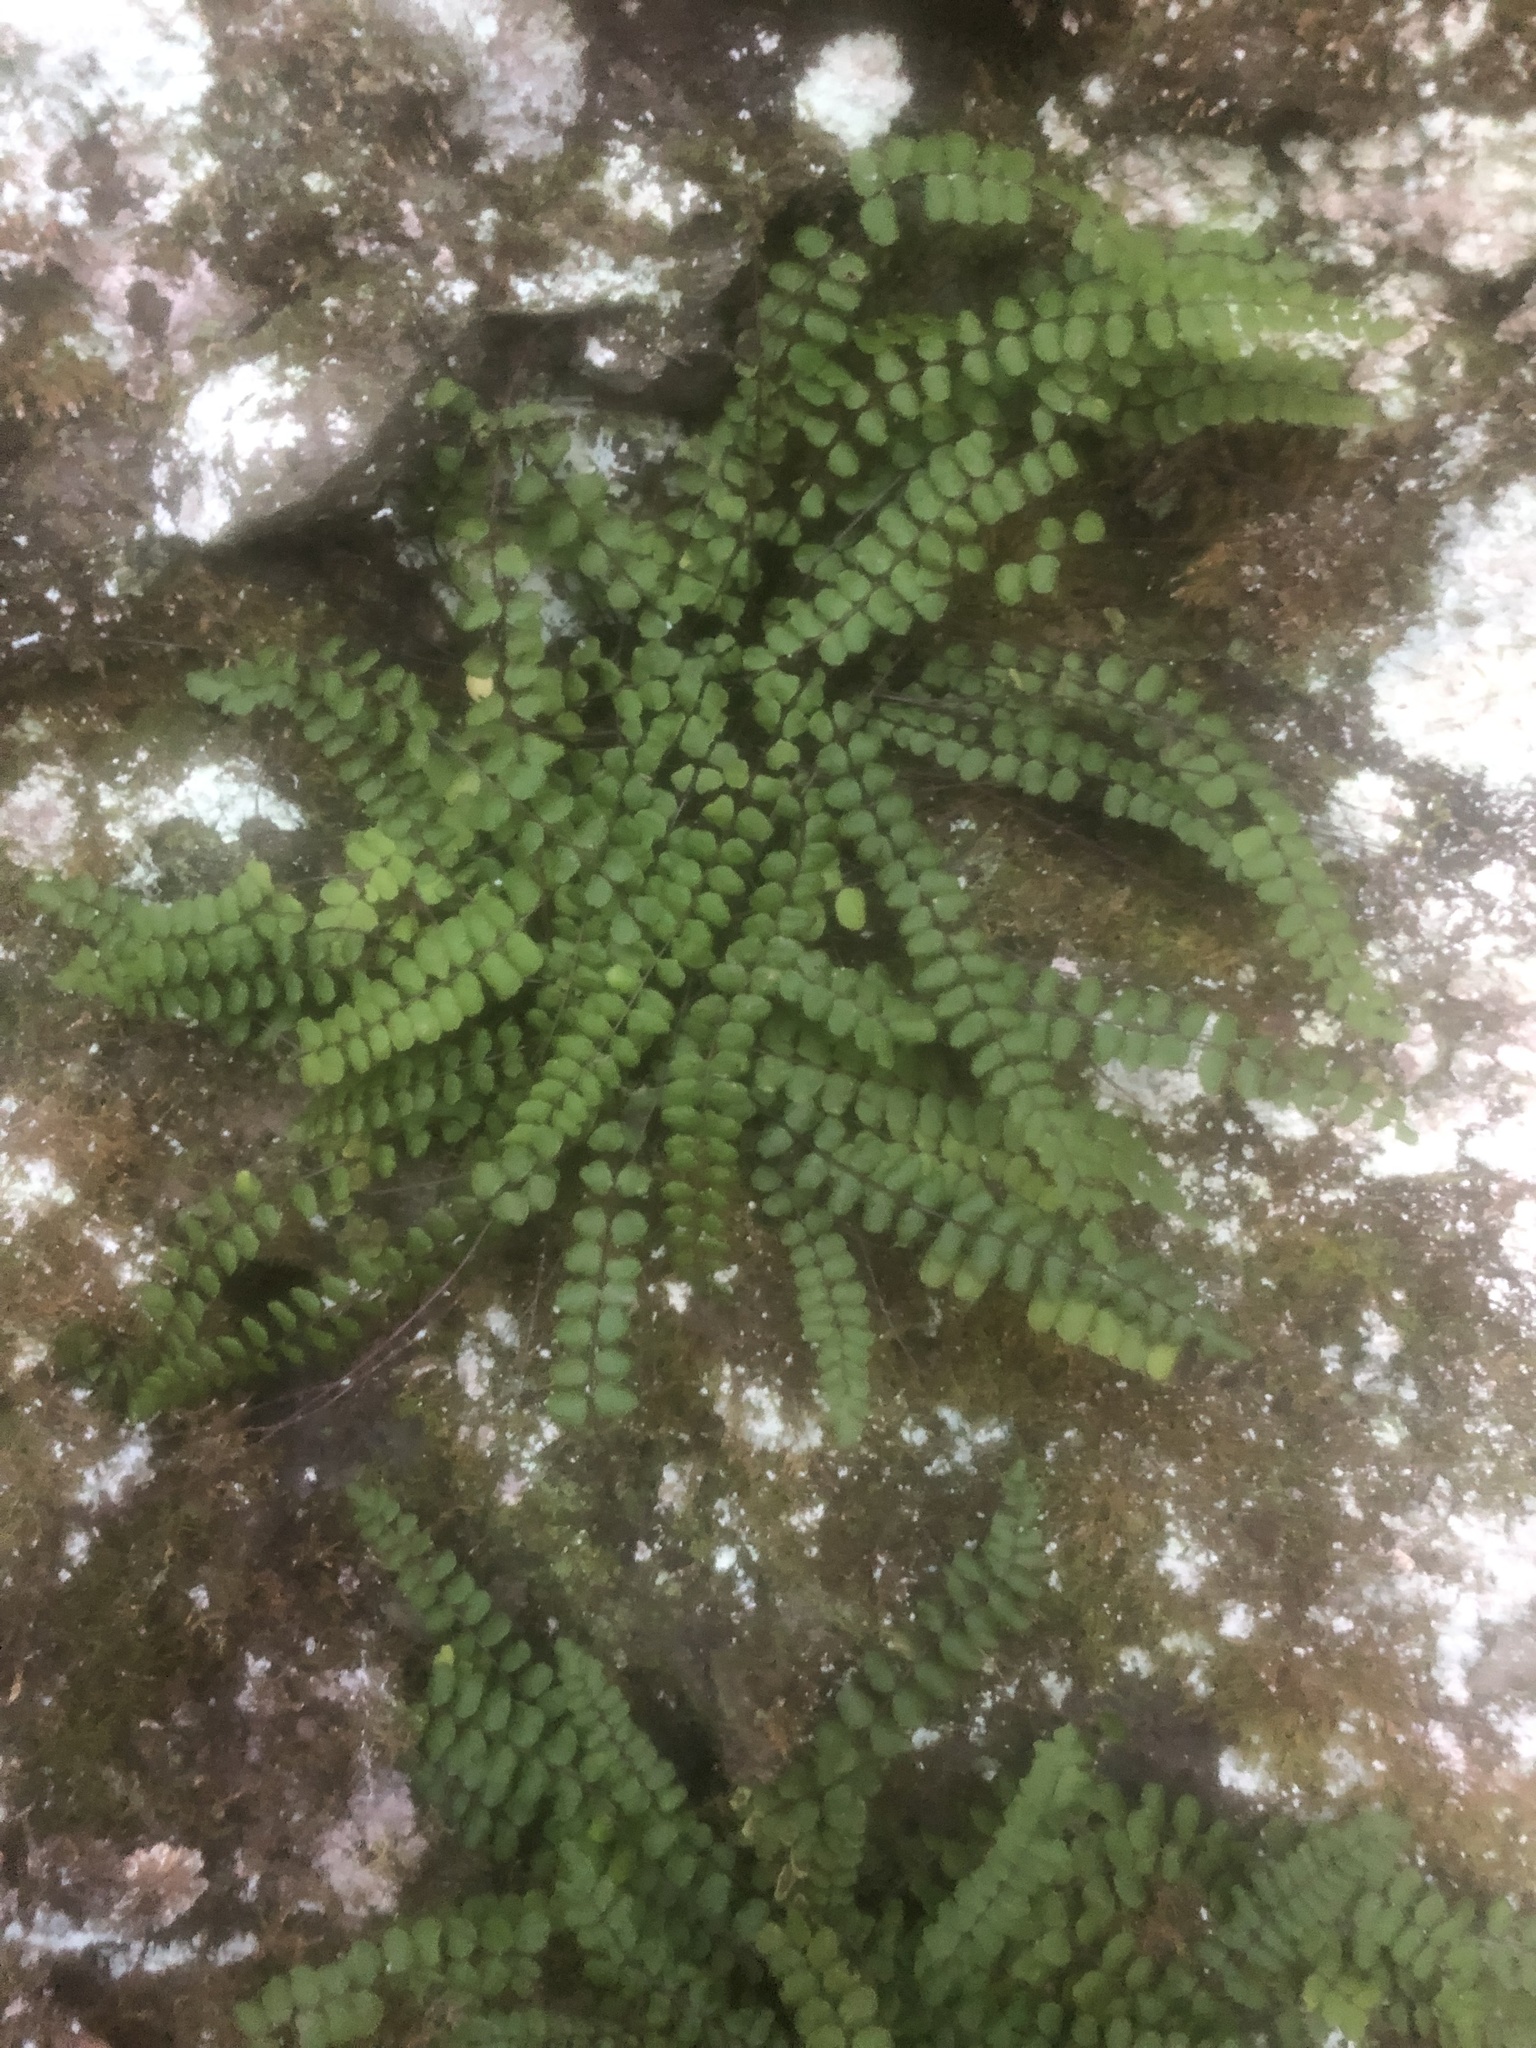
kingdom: Plantae
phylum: Tracheophyta
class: Polypodiopsida
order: Polypodiales
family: Aspleniaceae
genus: Asplenium
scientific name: Asplenium trichomanes
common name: Maidenhair spleenwort
